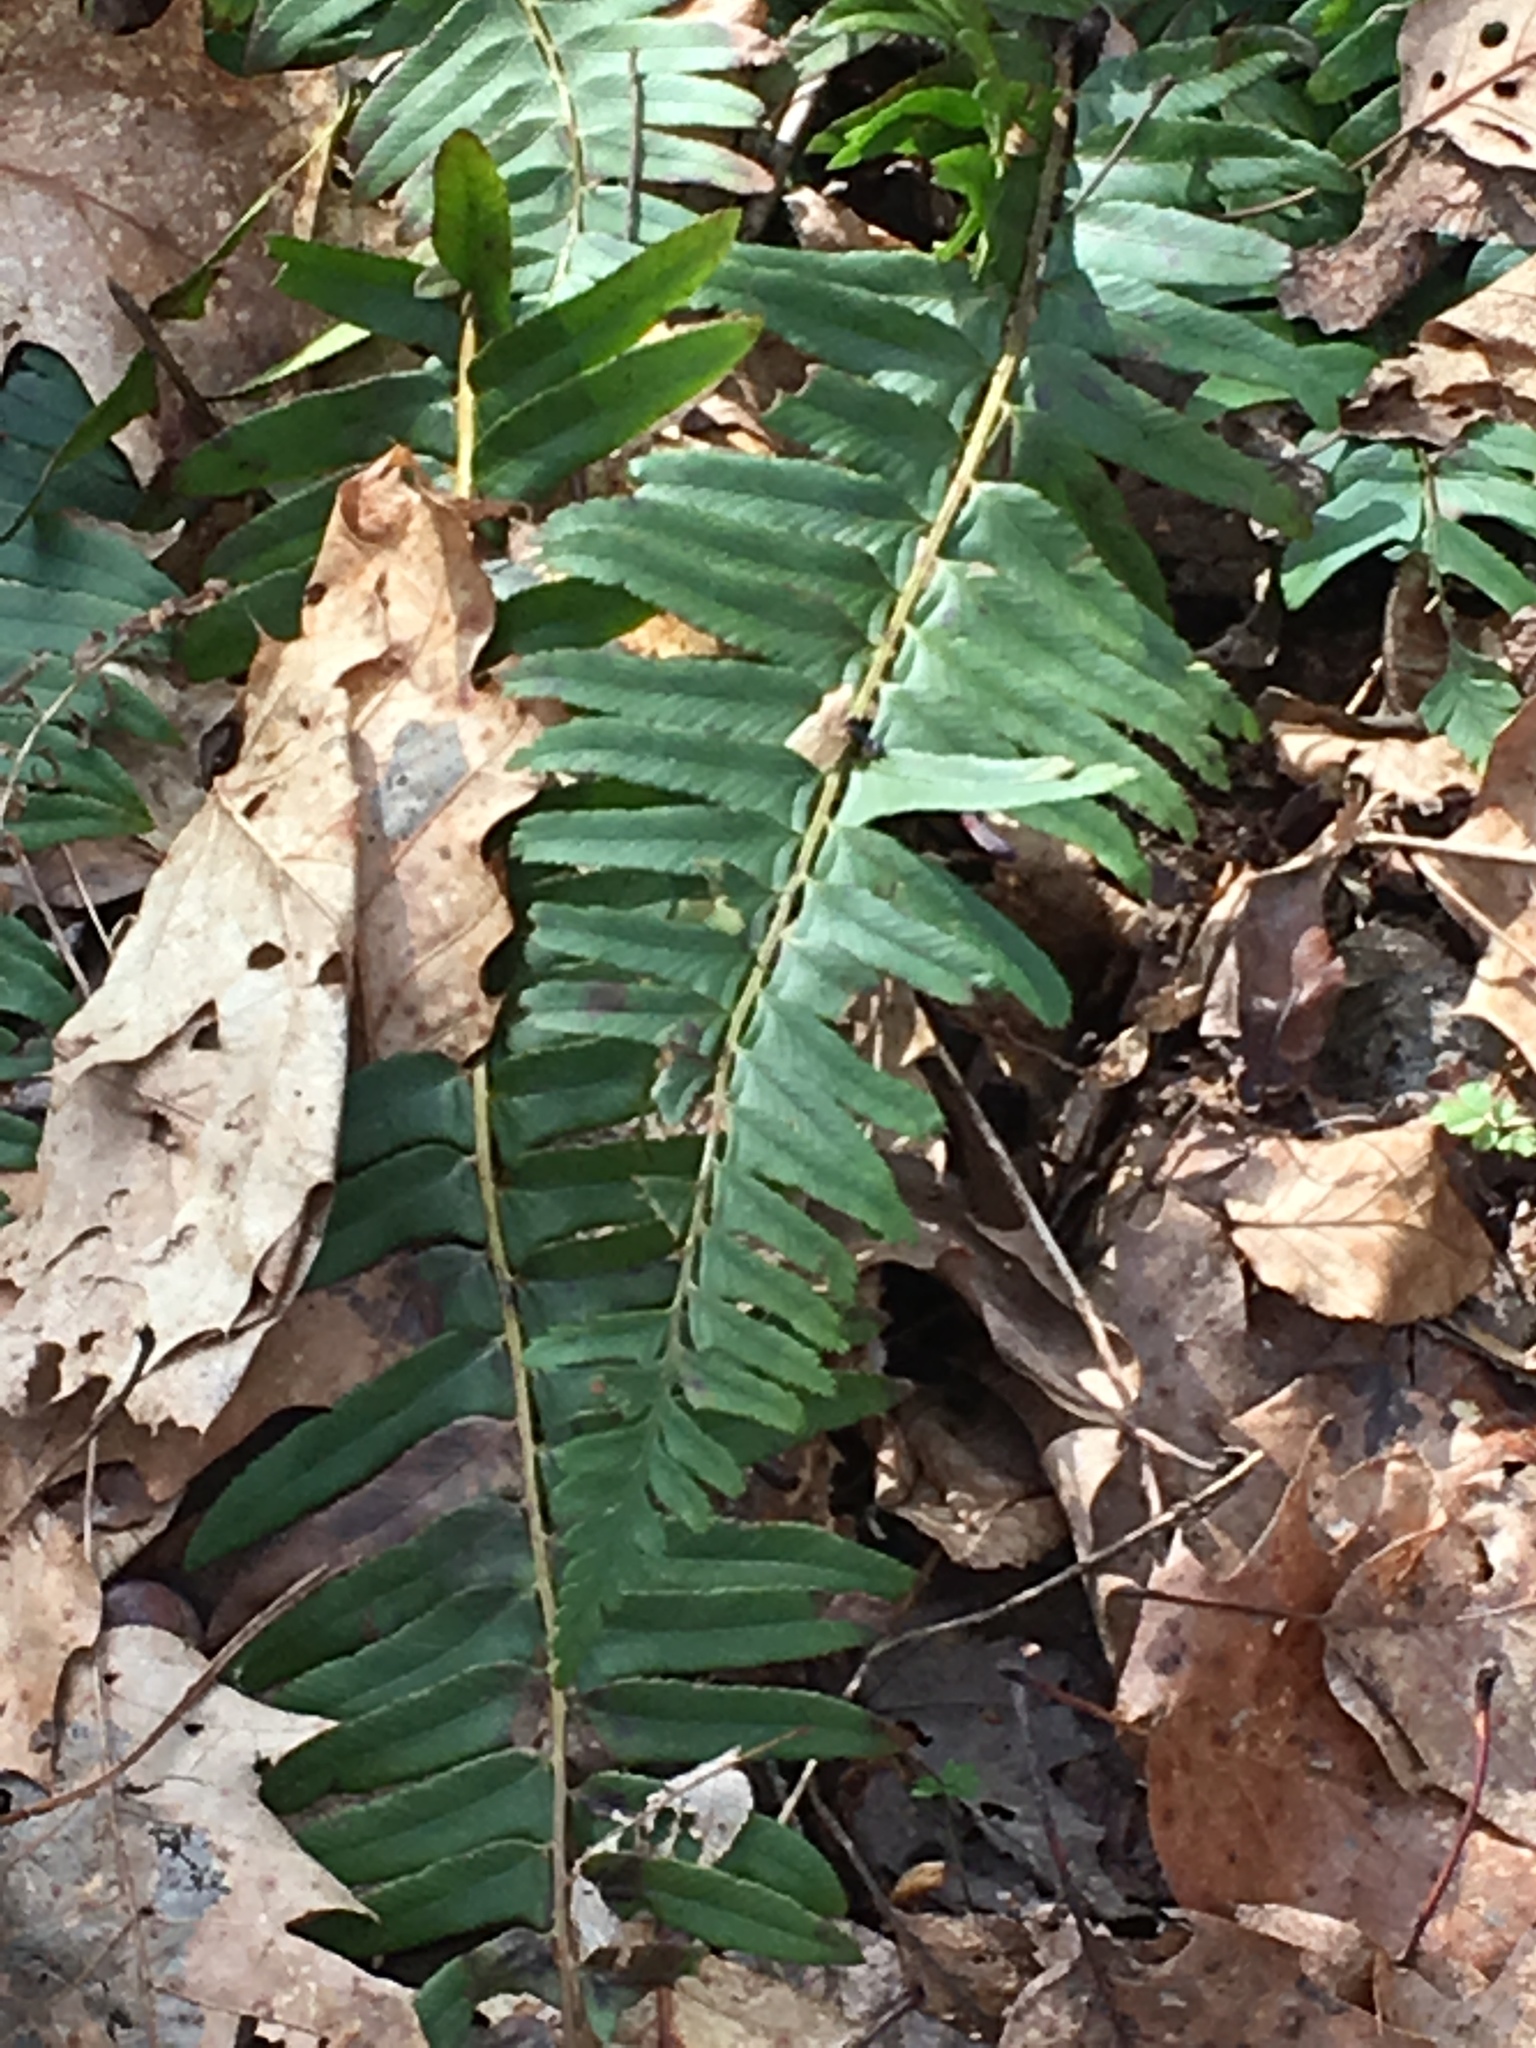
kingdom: Plantae
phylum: Tracheophyta
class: Polypodiopsida
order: Polypodiales
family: Dryopteridaceae
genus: Polystichum
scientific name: Polystichum acrostichoides
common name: Christmas fern
